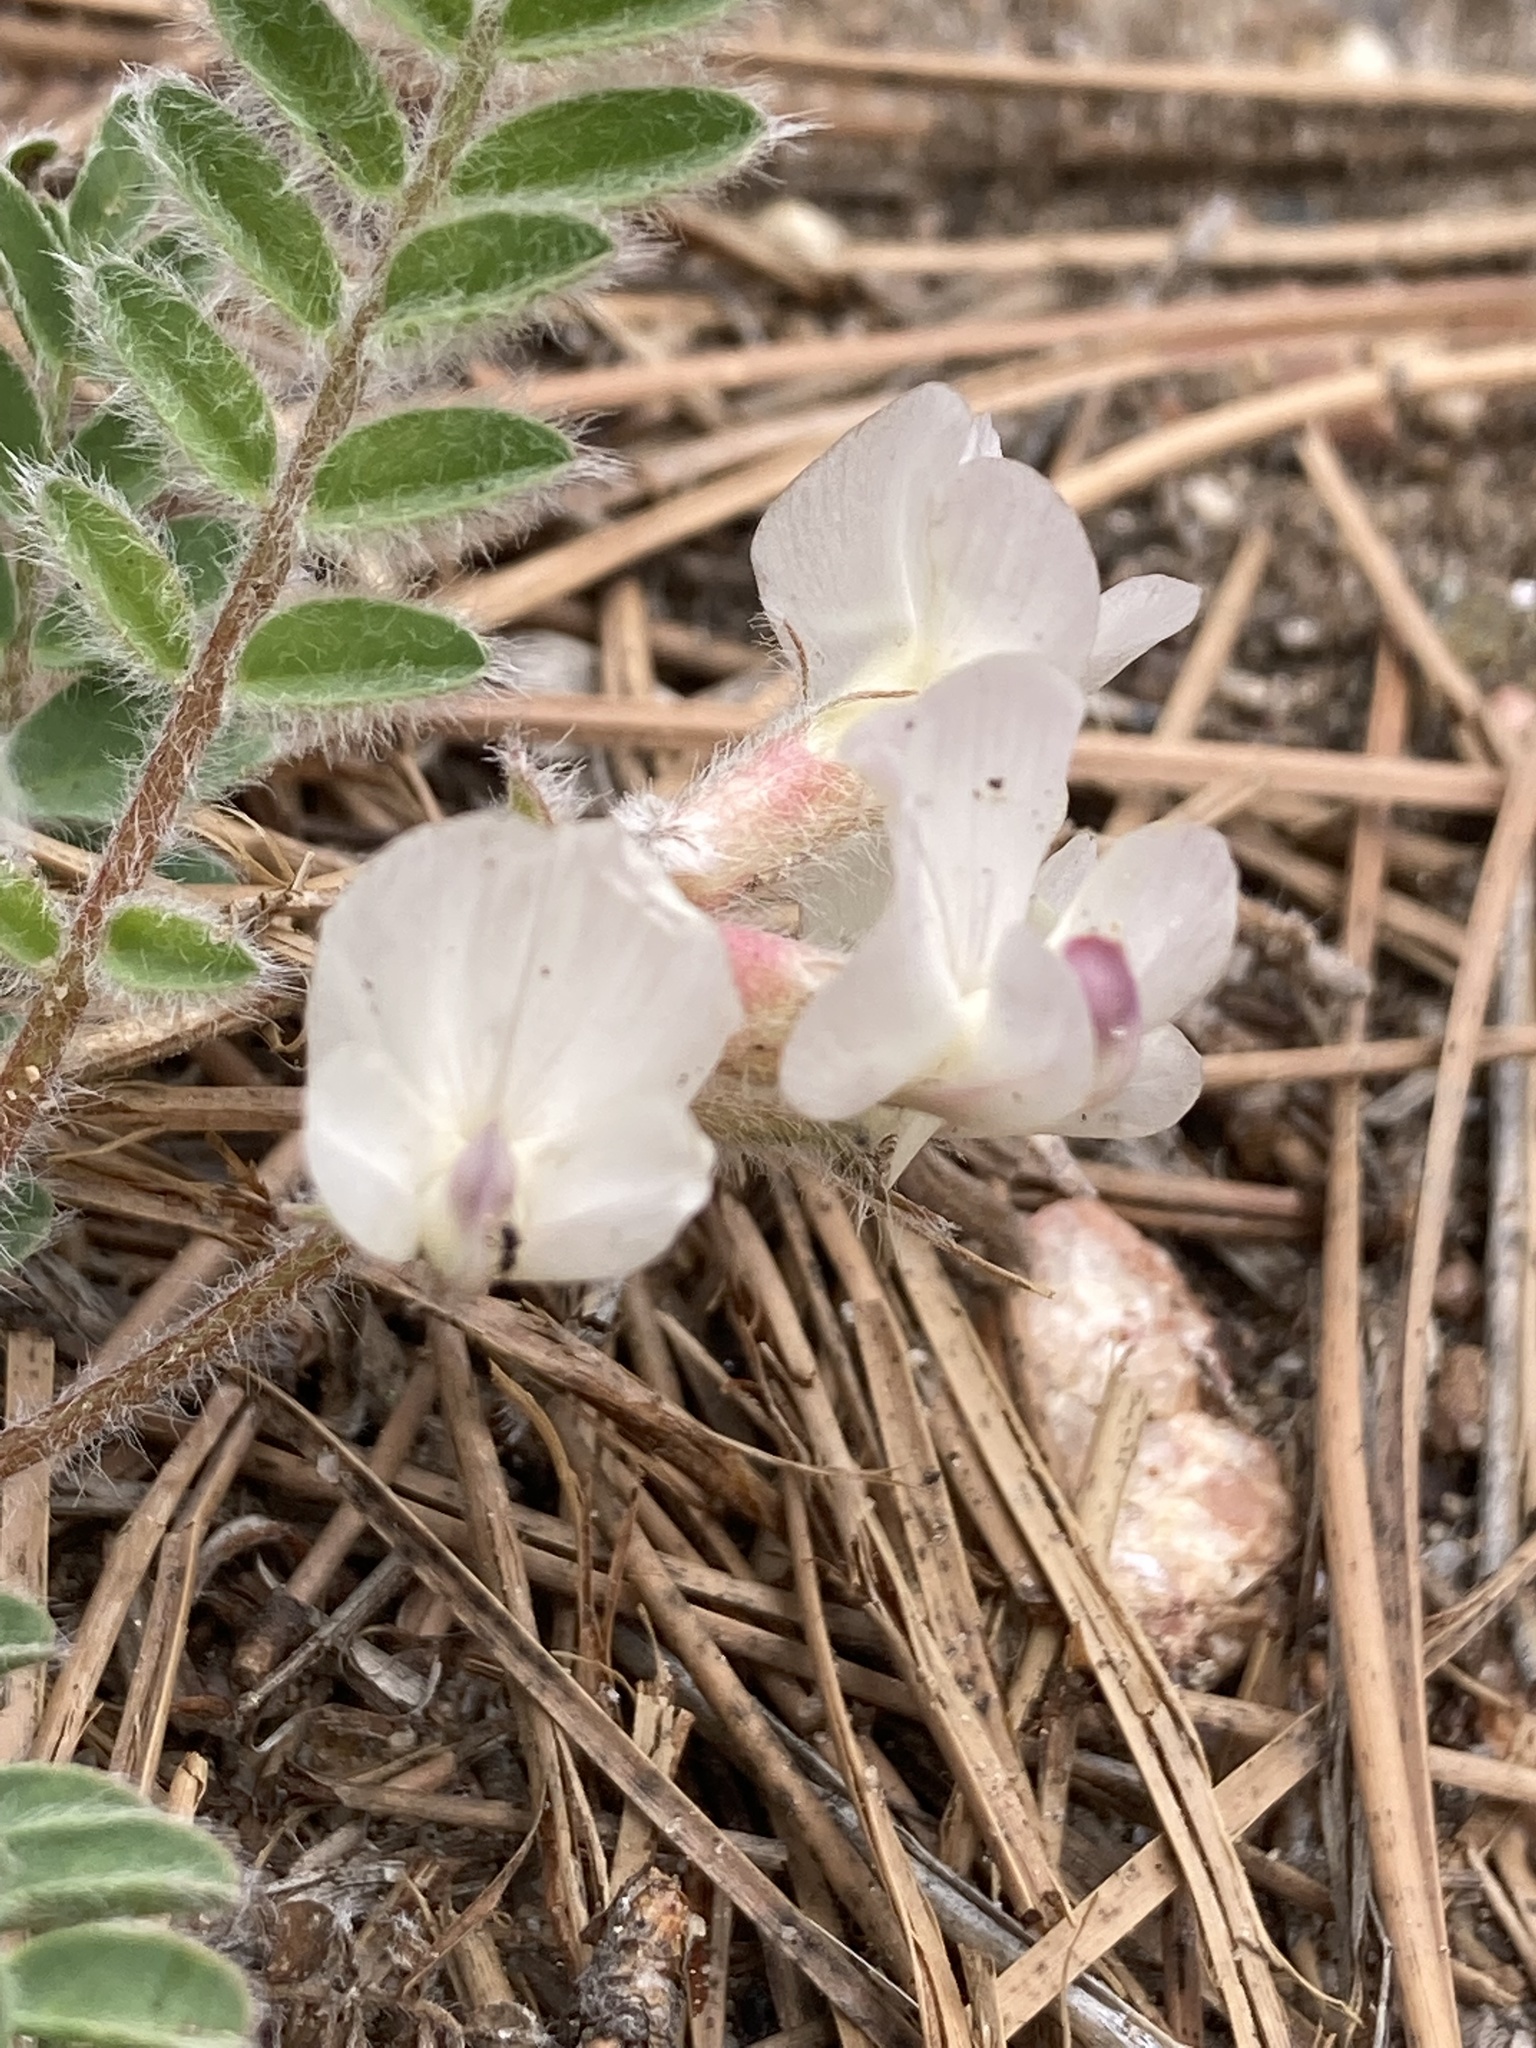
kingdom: Plantae
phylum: Tracheophyta
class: Magnoliopsida
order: Fabales
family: Fabaceae
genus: Astragalus
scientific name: Astragalus parryi
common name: Parry milk-vetch
